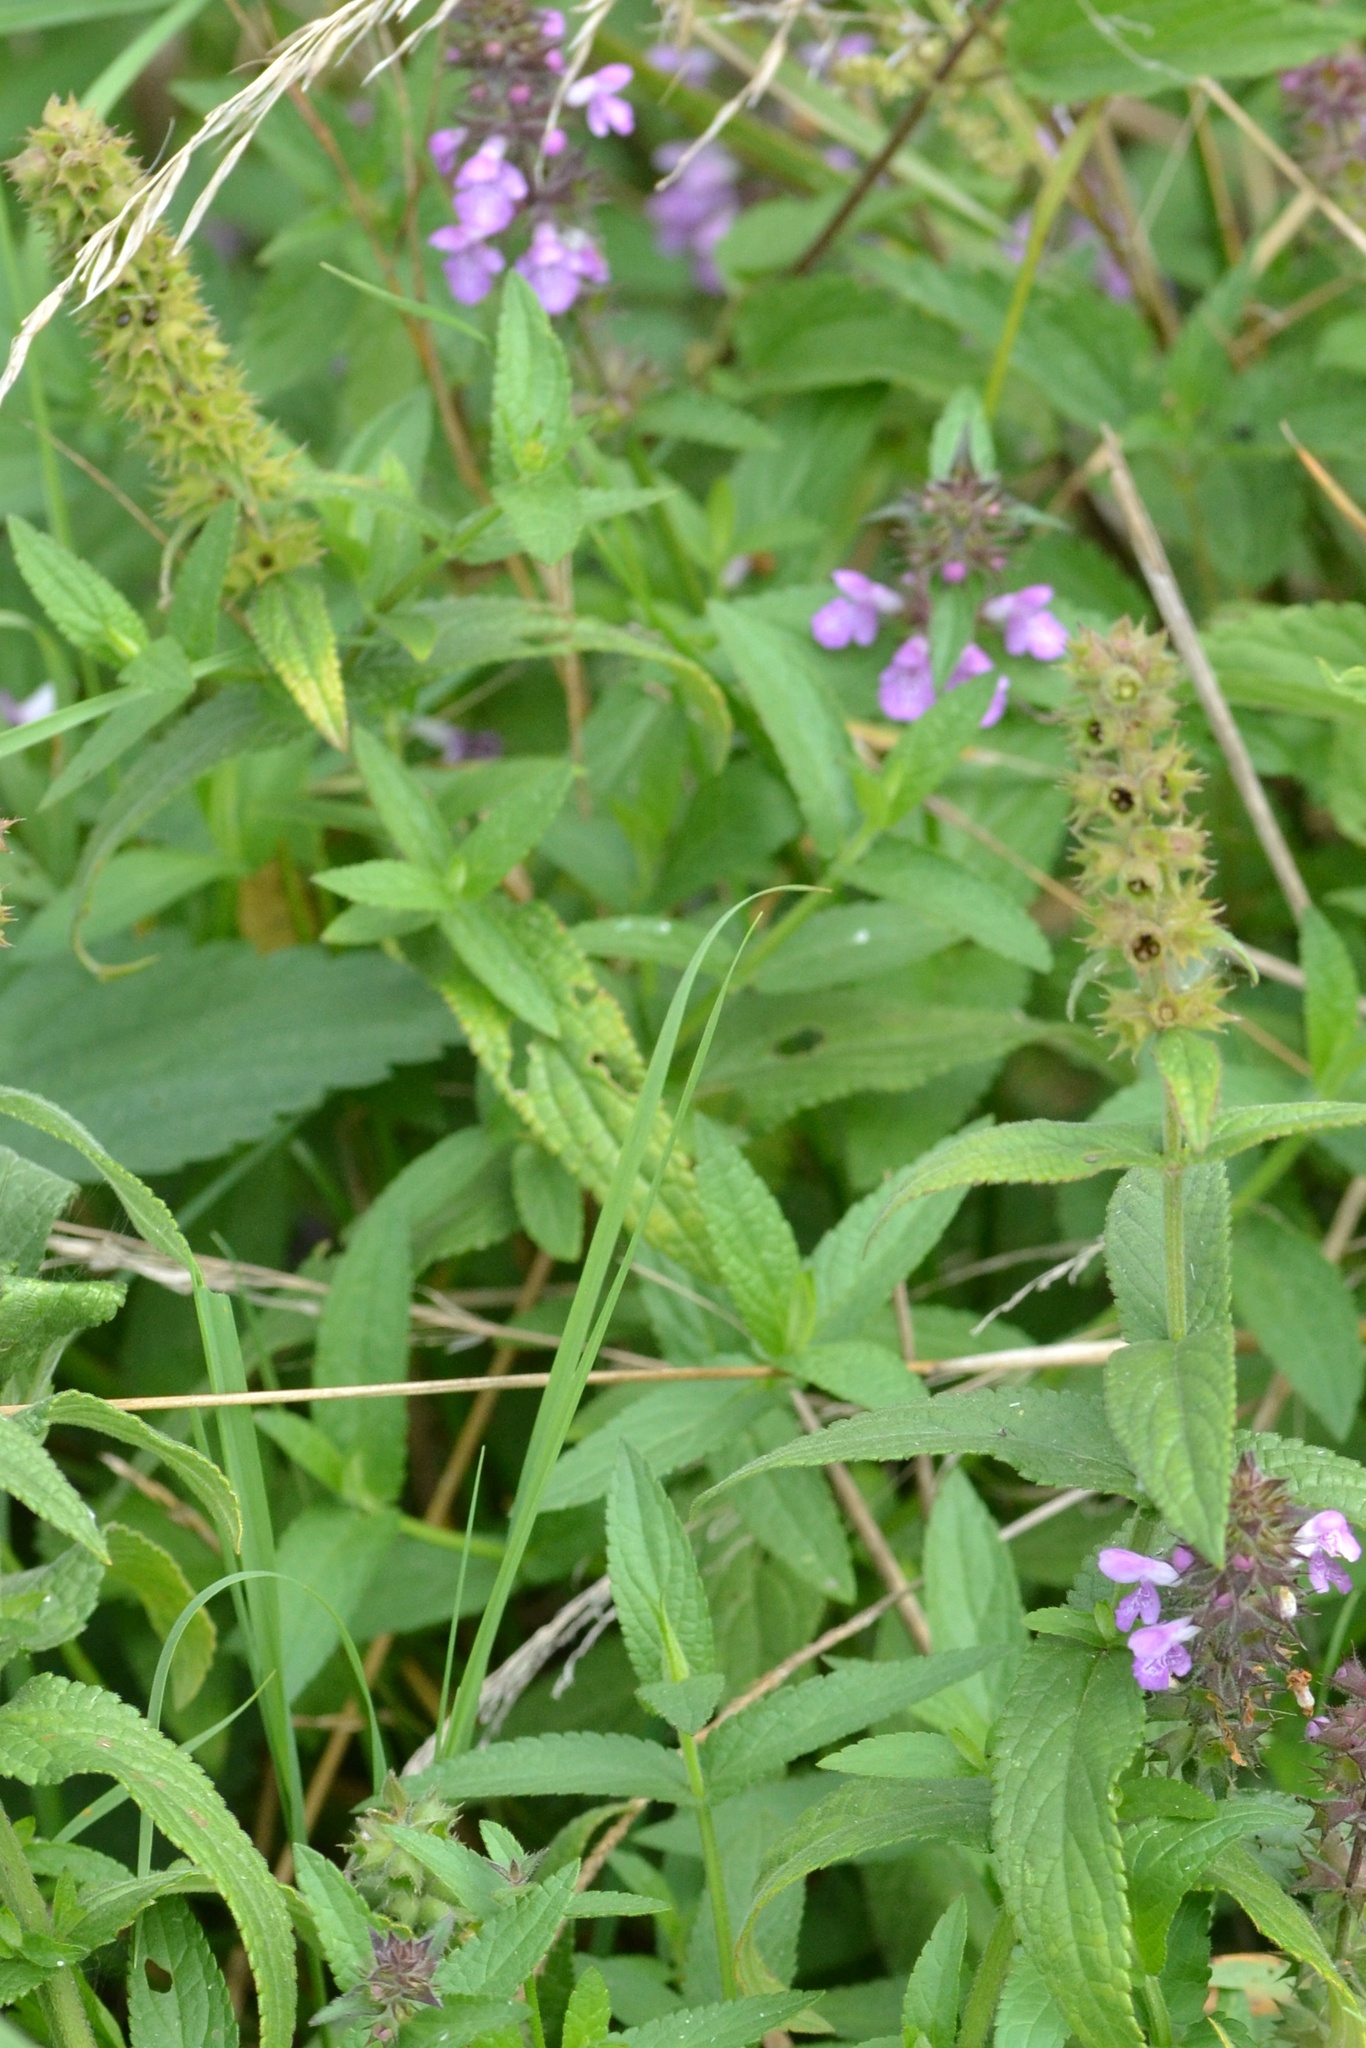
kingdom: Plantae
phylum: Tracheophyta
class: Magnoliopsida
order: Lamiales
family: Lamiaceae
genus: Stachys
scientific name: Stachys palustris
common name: Marsh woundwort
